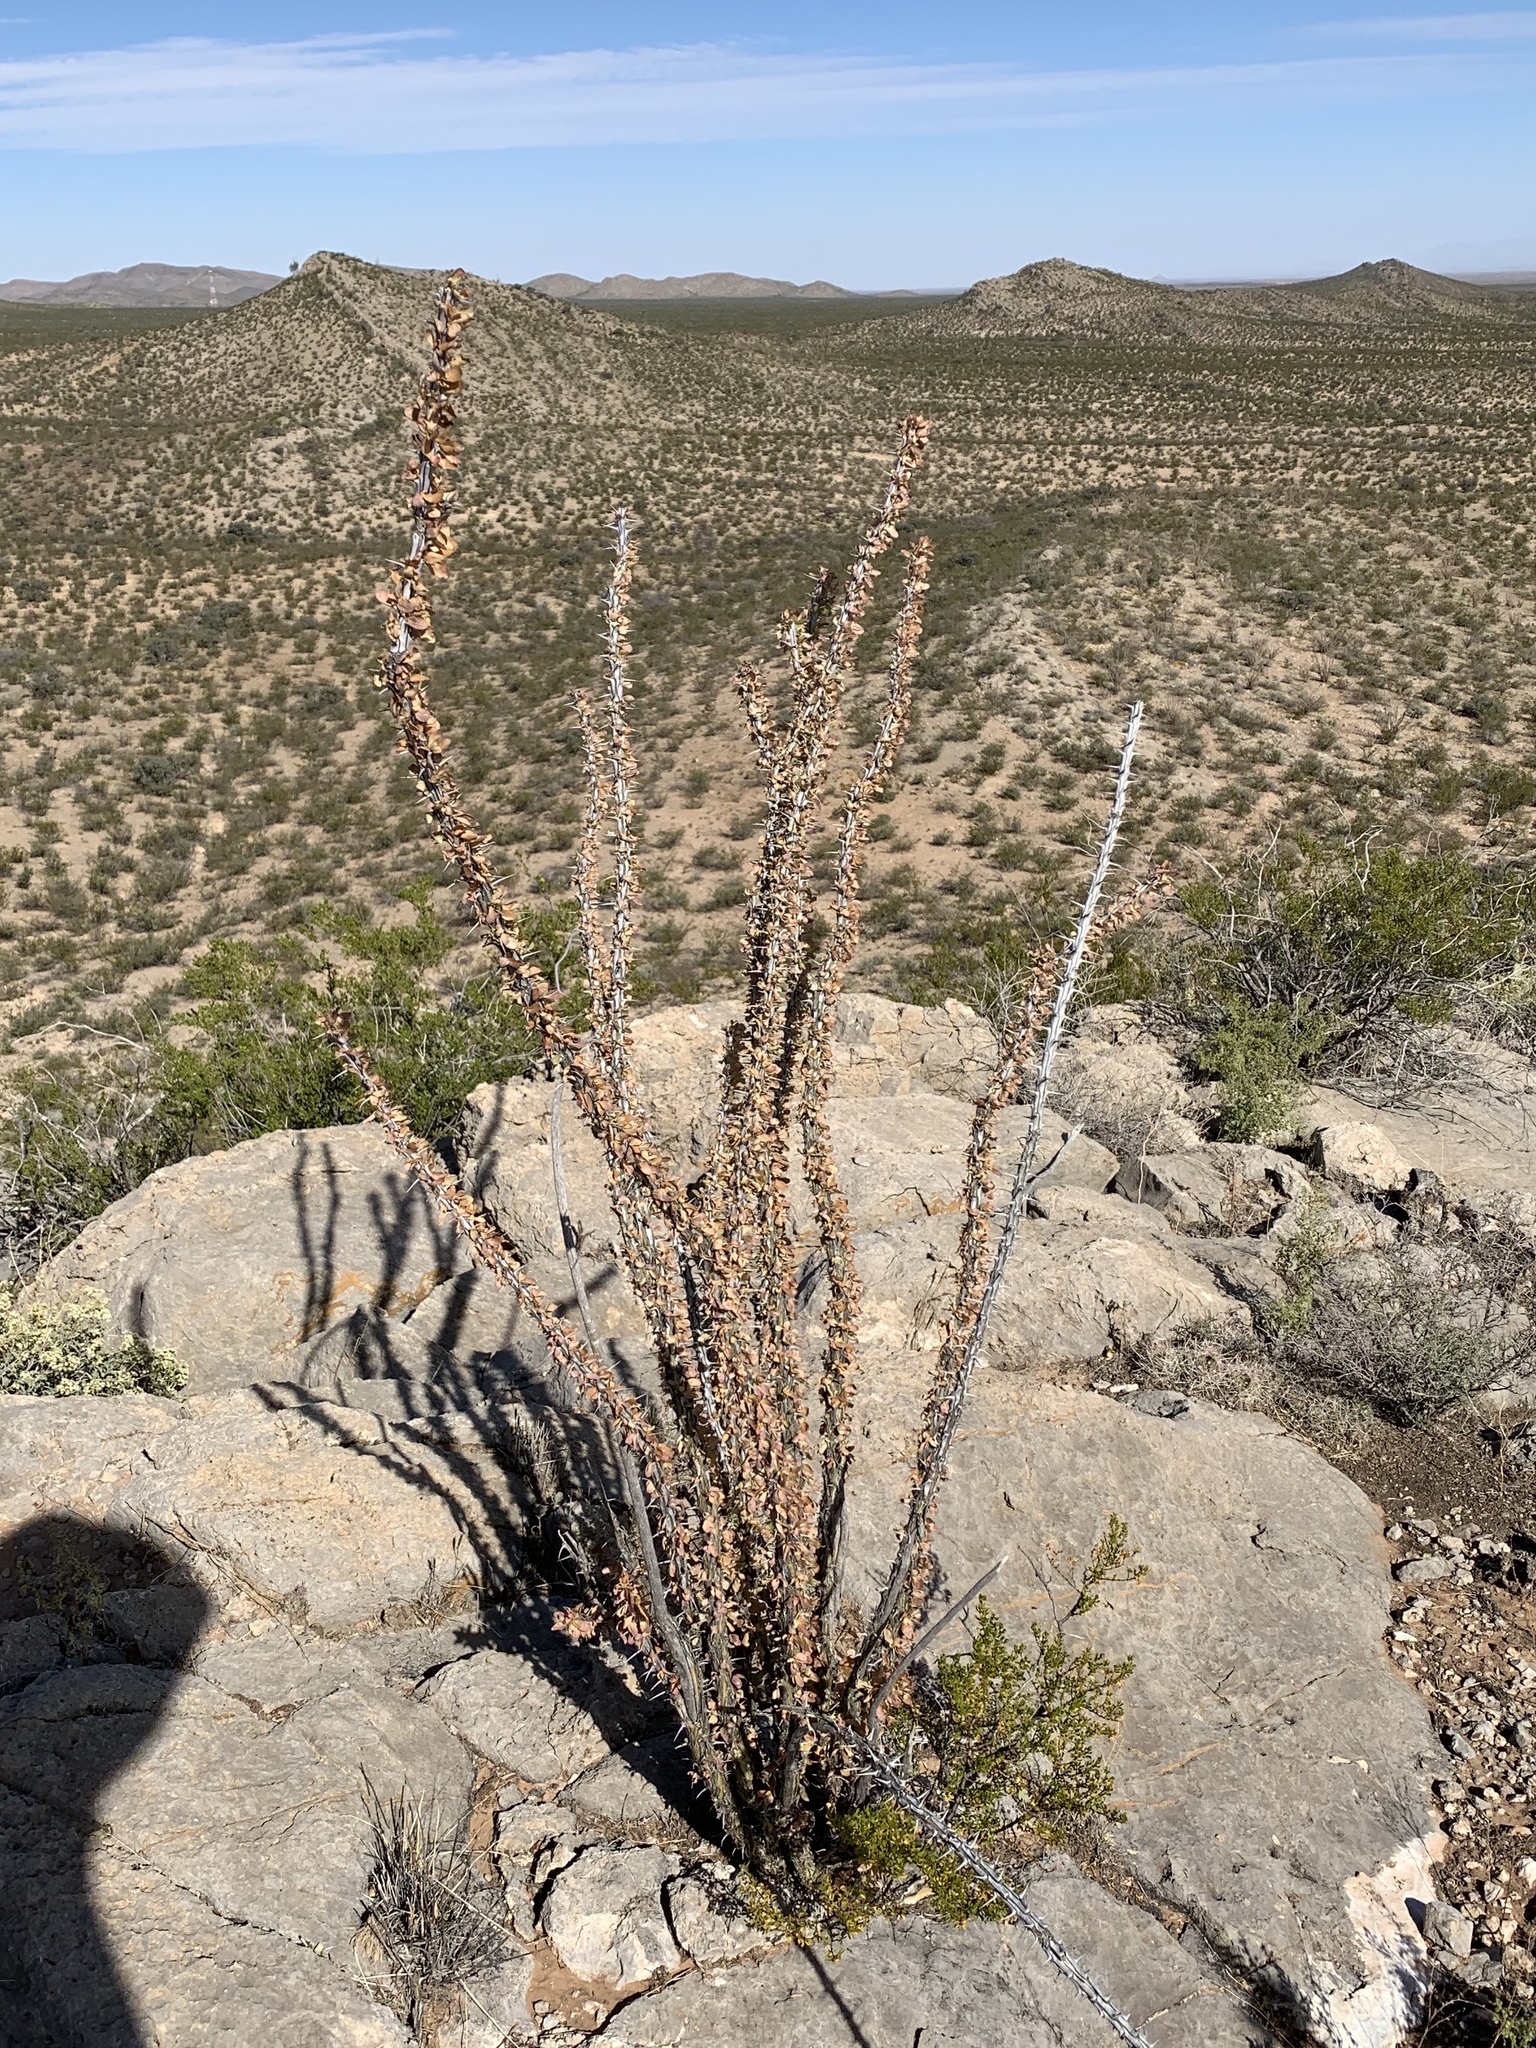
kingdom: Plantae
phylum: Tracheophyta
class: Magnoliopsida
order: Ericales
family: Fouquieriaceae
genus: Fouquieria
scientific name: Fouquieria splendens
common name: Vine-cactus
